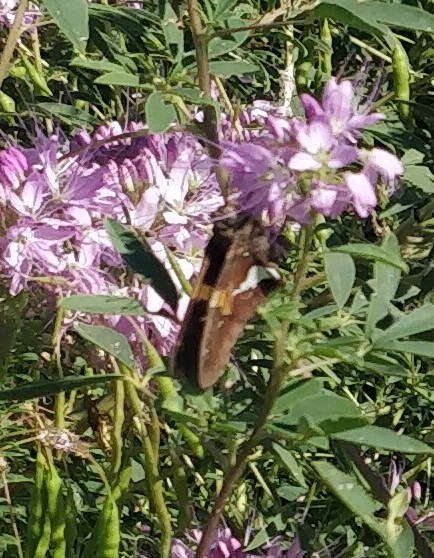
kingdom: Animalia
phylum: Arthropoda
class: Insecta
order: Lepidoptera
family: Hesperiidae
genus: Epargyreus
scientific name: Epargyreus clarus
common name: Silver-spotted skipper
